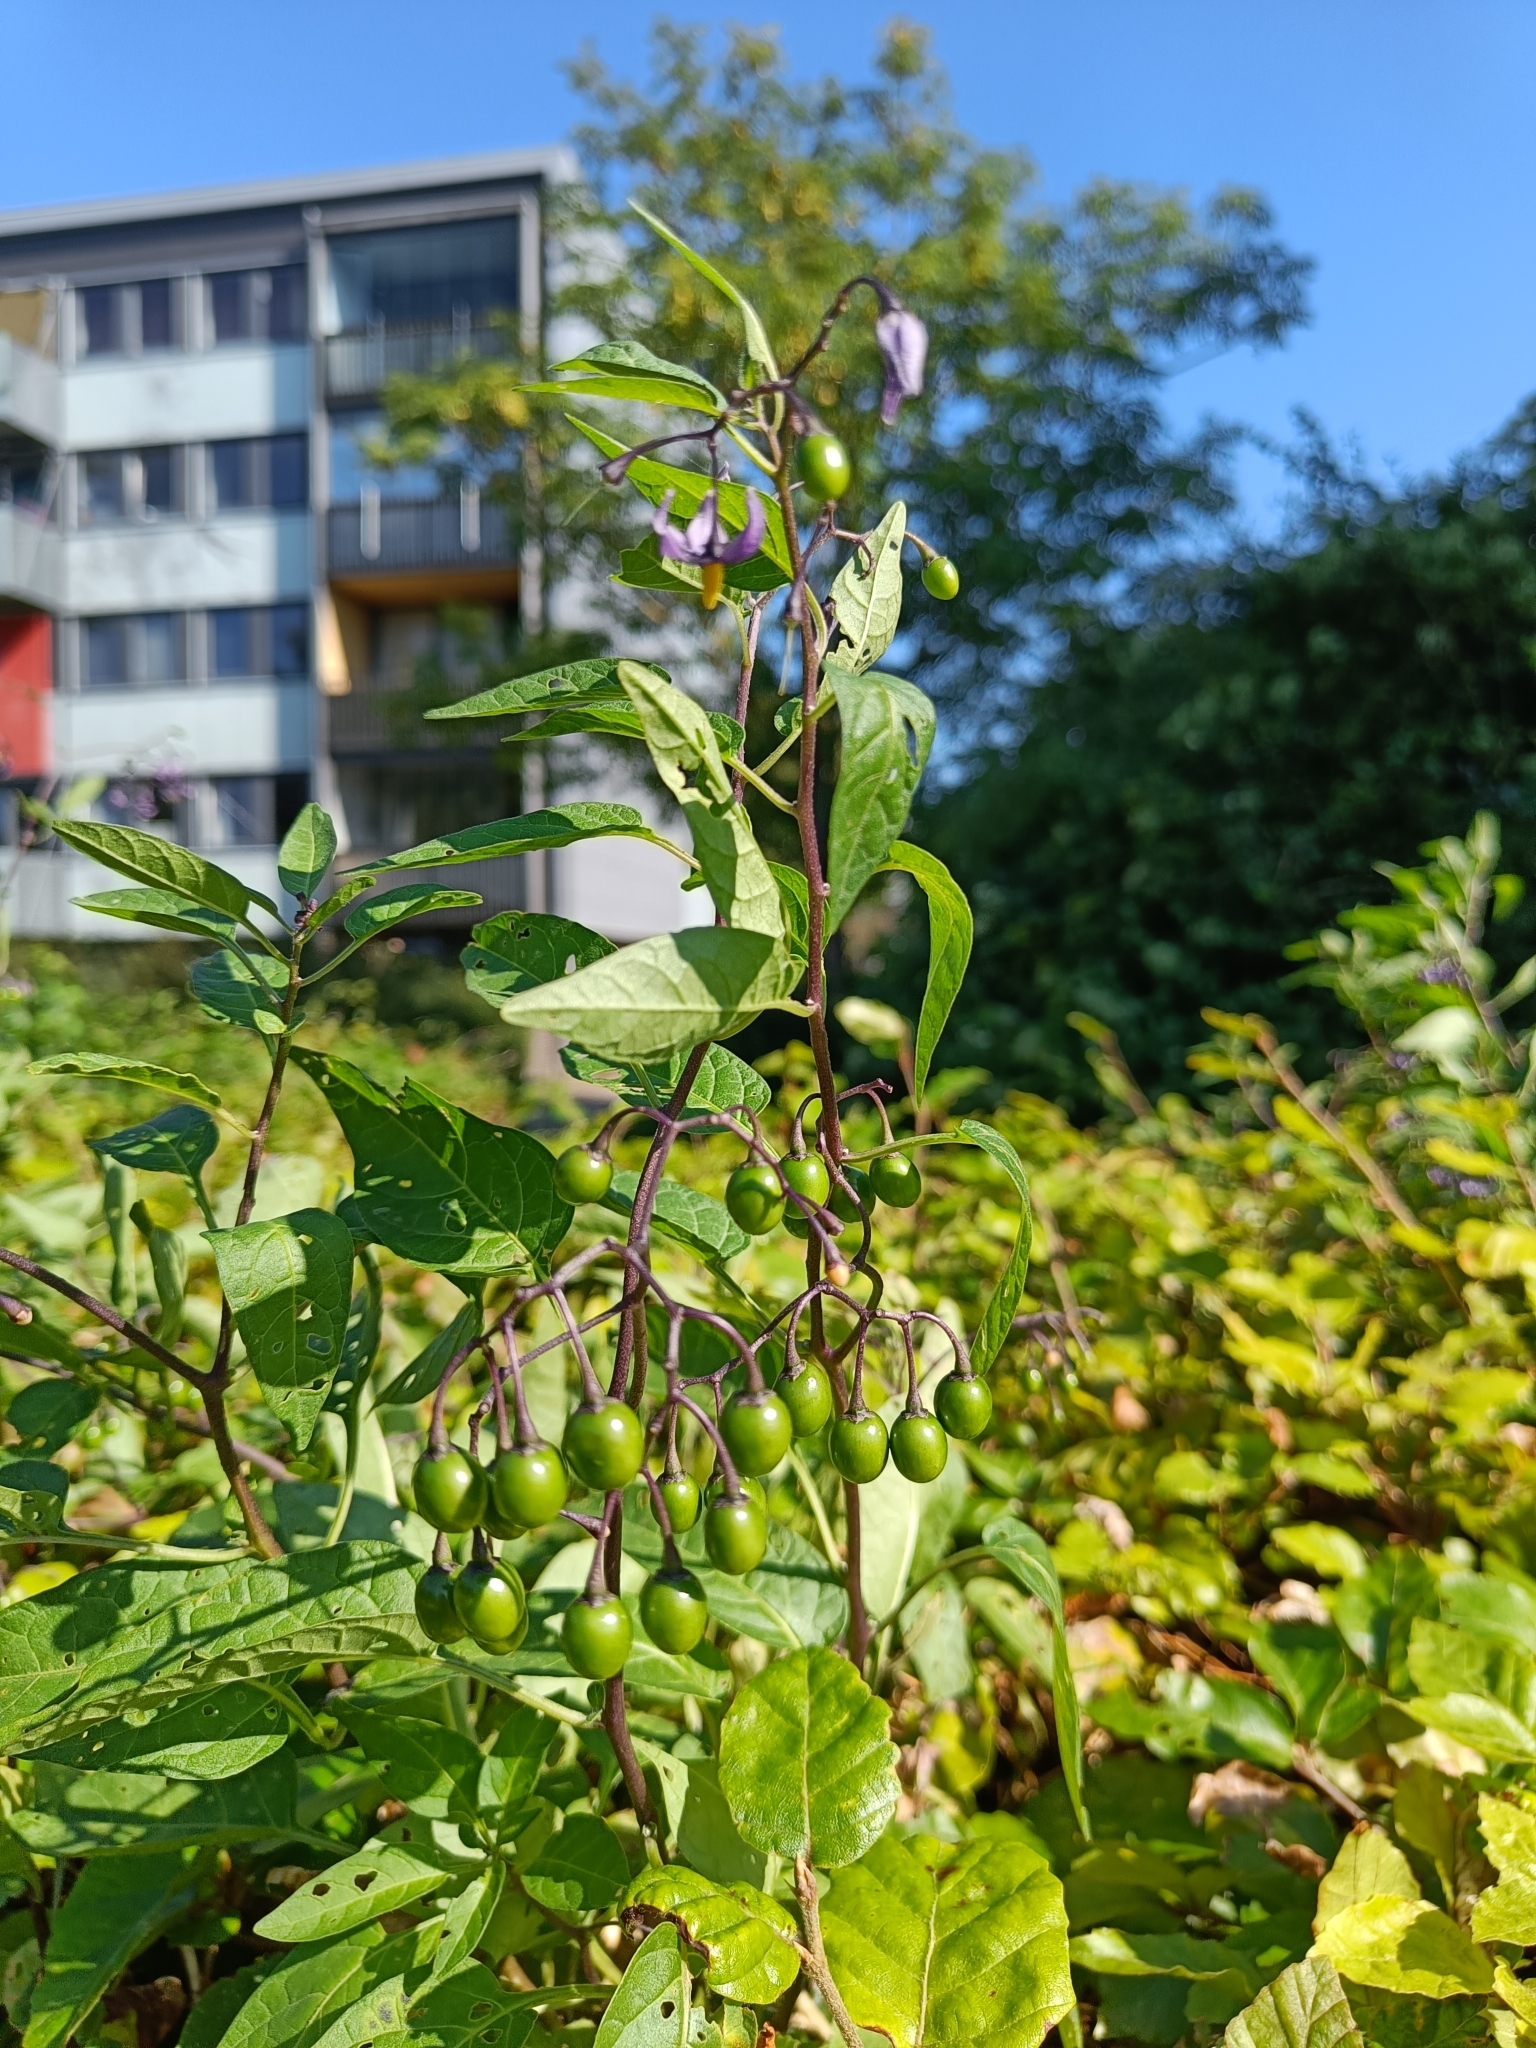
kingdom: Plantae
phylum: Tracheophyta
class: Magnoliopsida
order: Solanales
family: Solanaceae
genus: Solanum
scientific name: Solanum dulcamara
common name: Climbing nightshade
